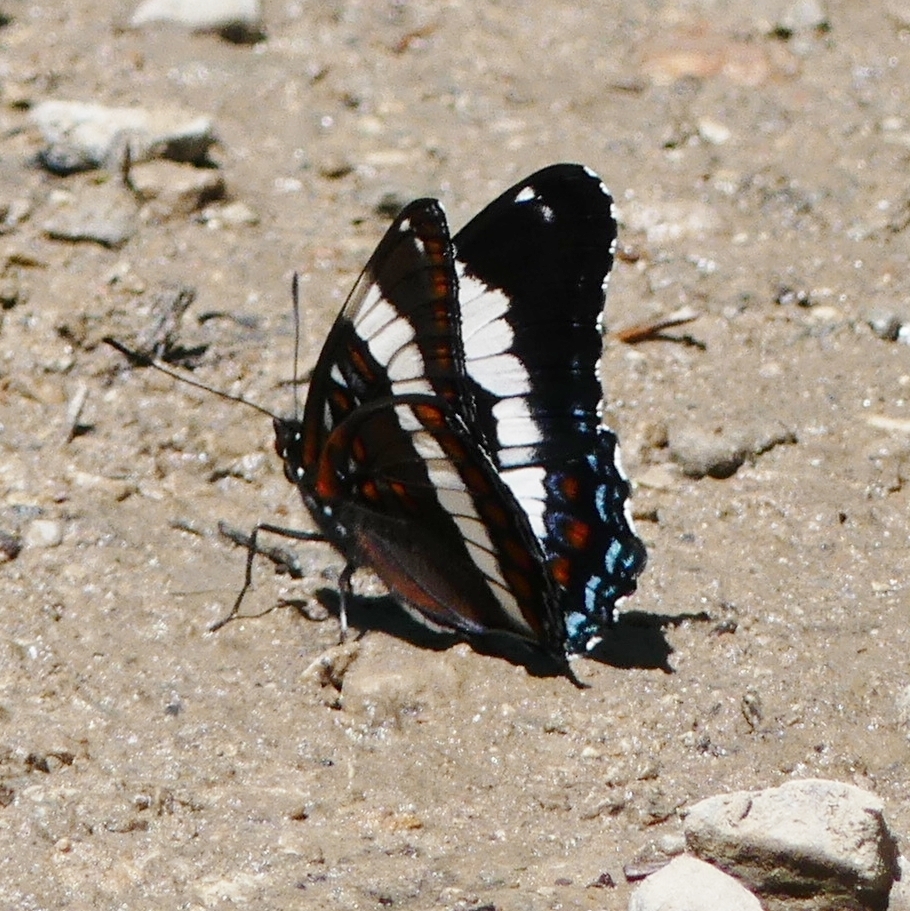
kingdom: Animalia
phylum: Arthropoda
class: Insecta
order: Lepidoptera
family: Nymphalidae
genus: Limenitis
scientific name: Limenitis arthemis
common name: Red-spotted admiral
